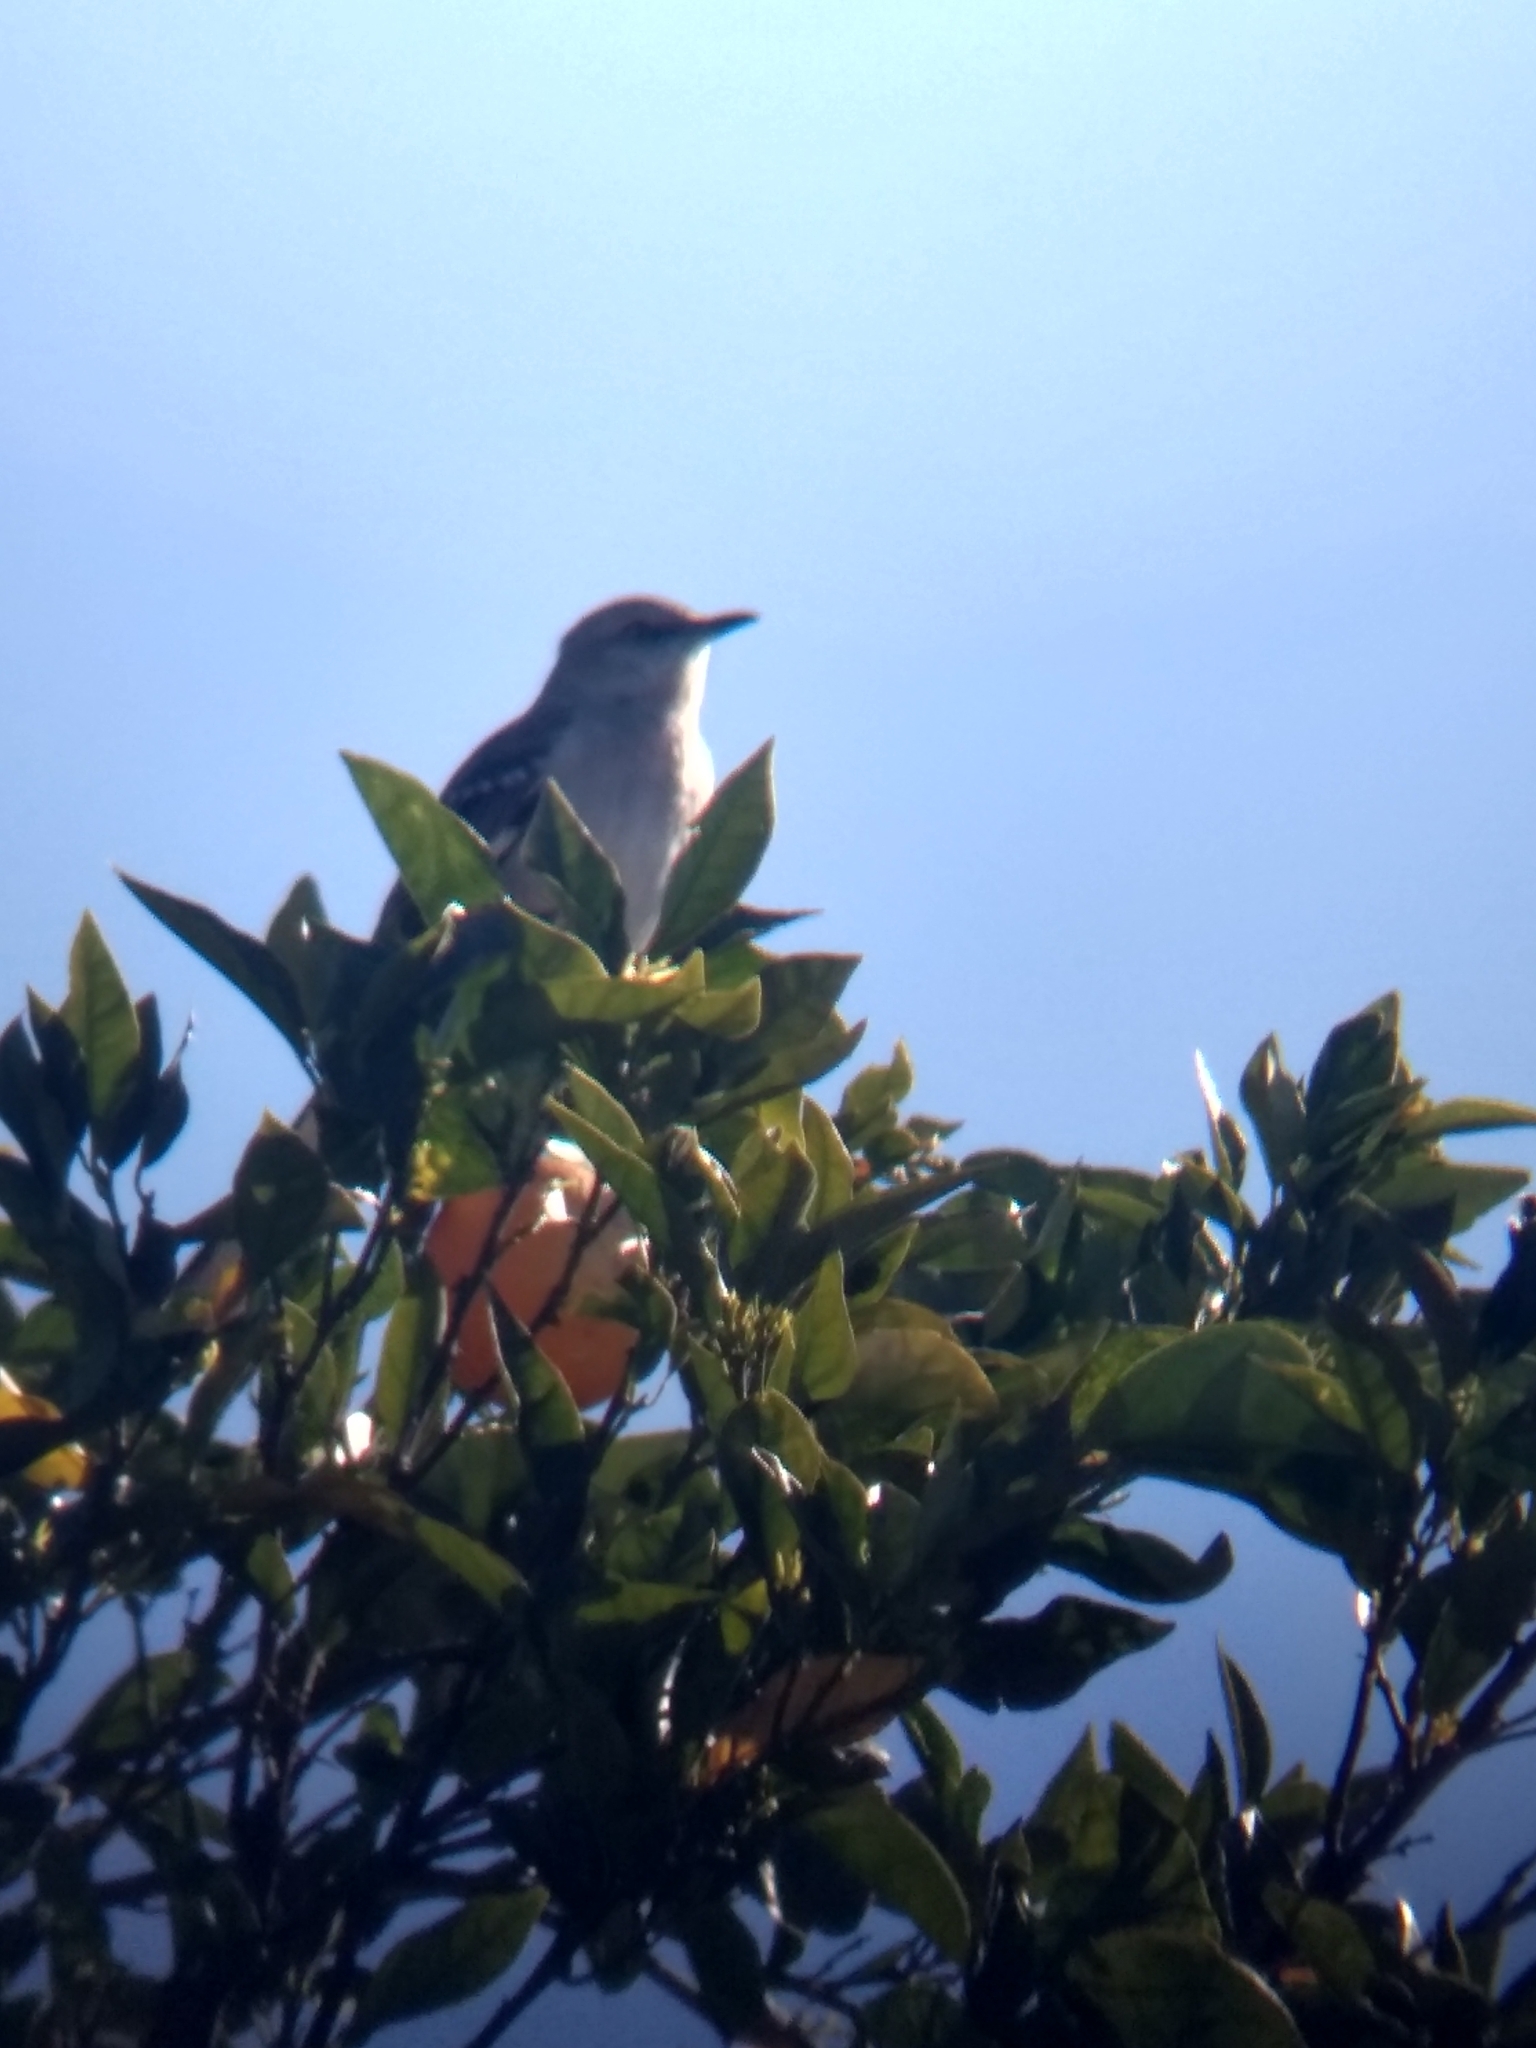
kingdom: Animalia
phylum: Chordata
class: Aves
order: Passeriformes
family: Mimidae
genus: Mimus
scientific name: Mimus polyglottos
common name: Northern mockingbird
